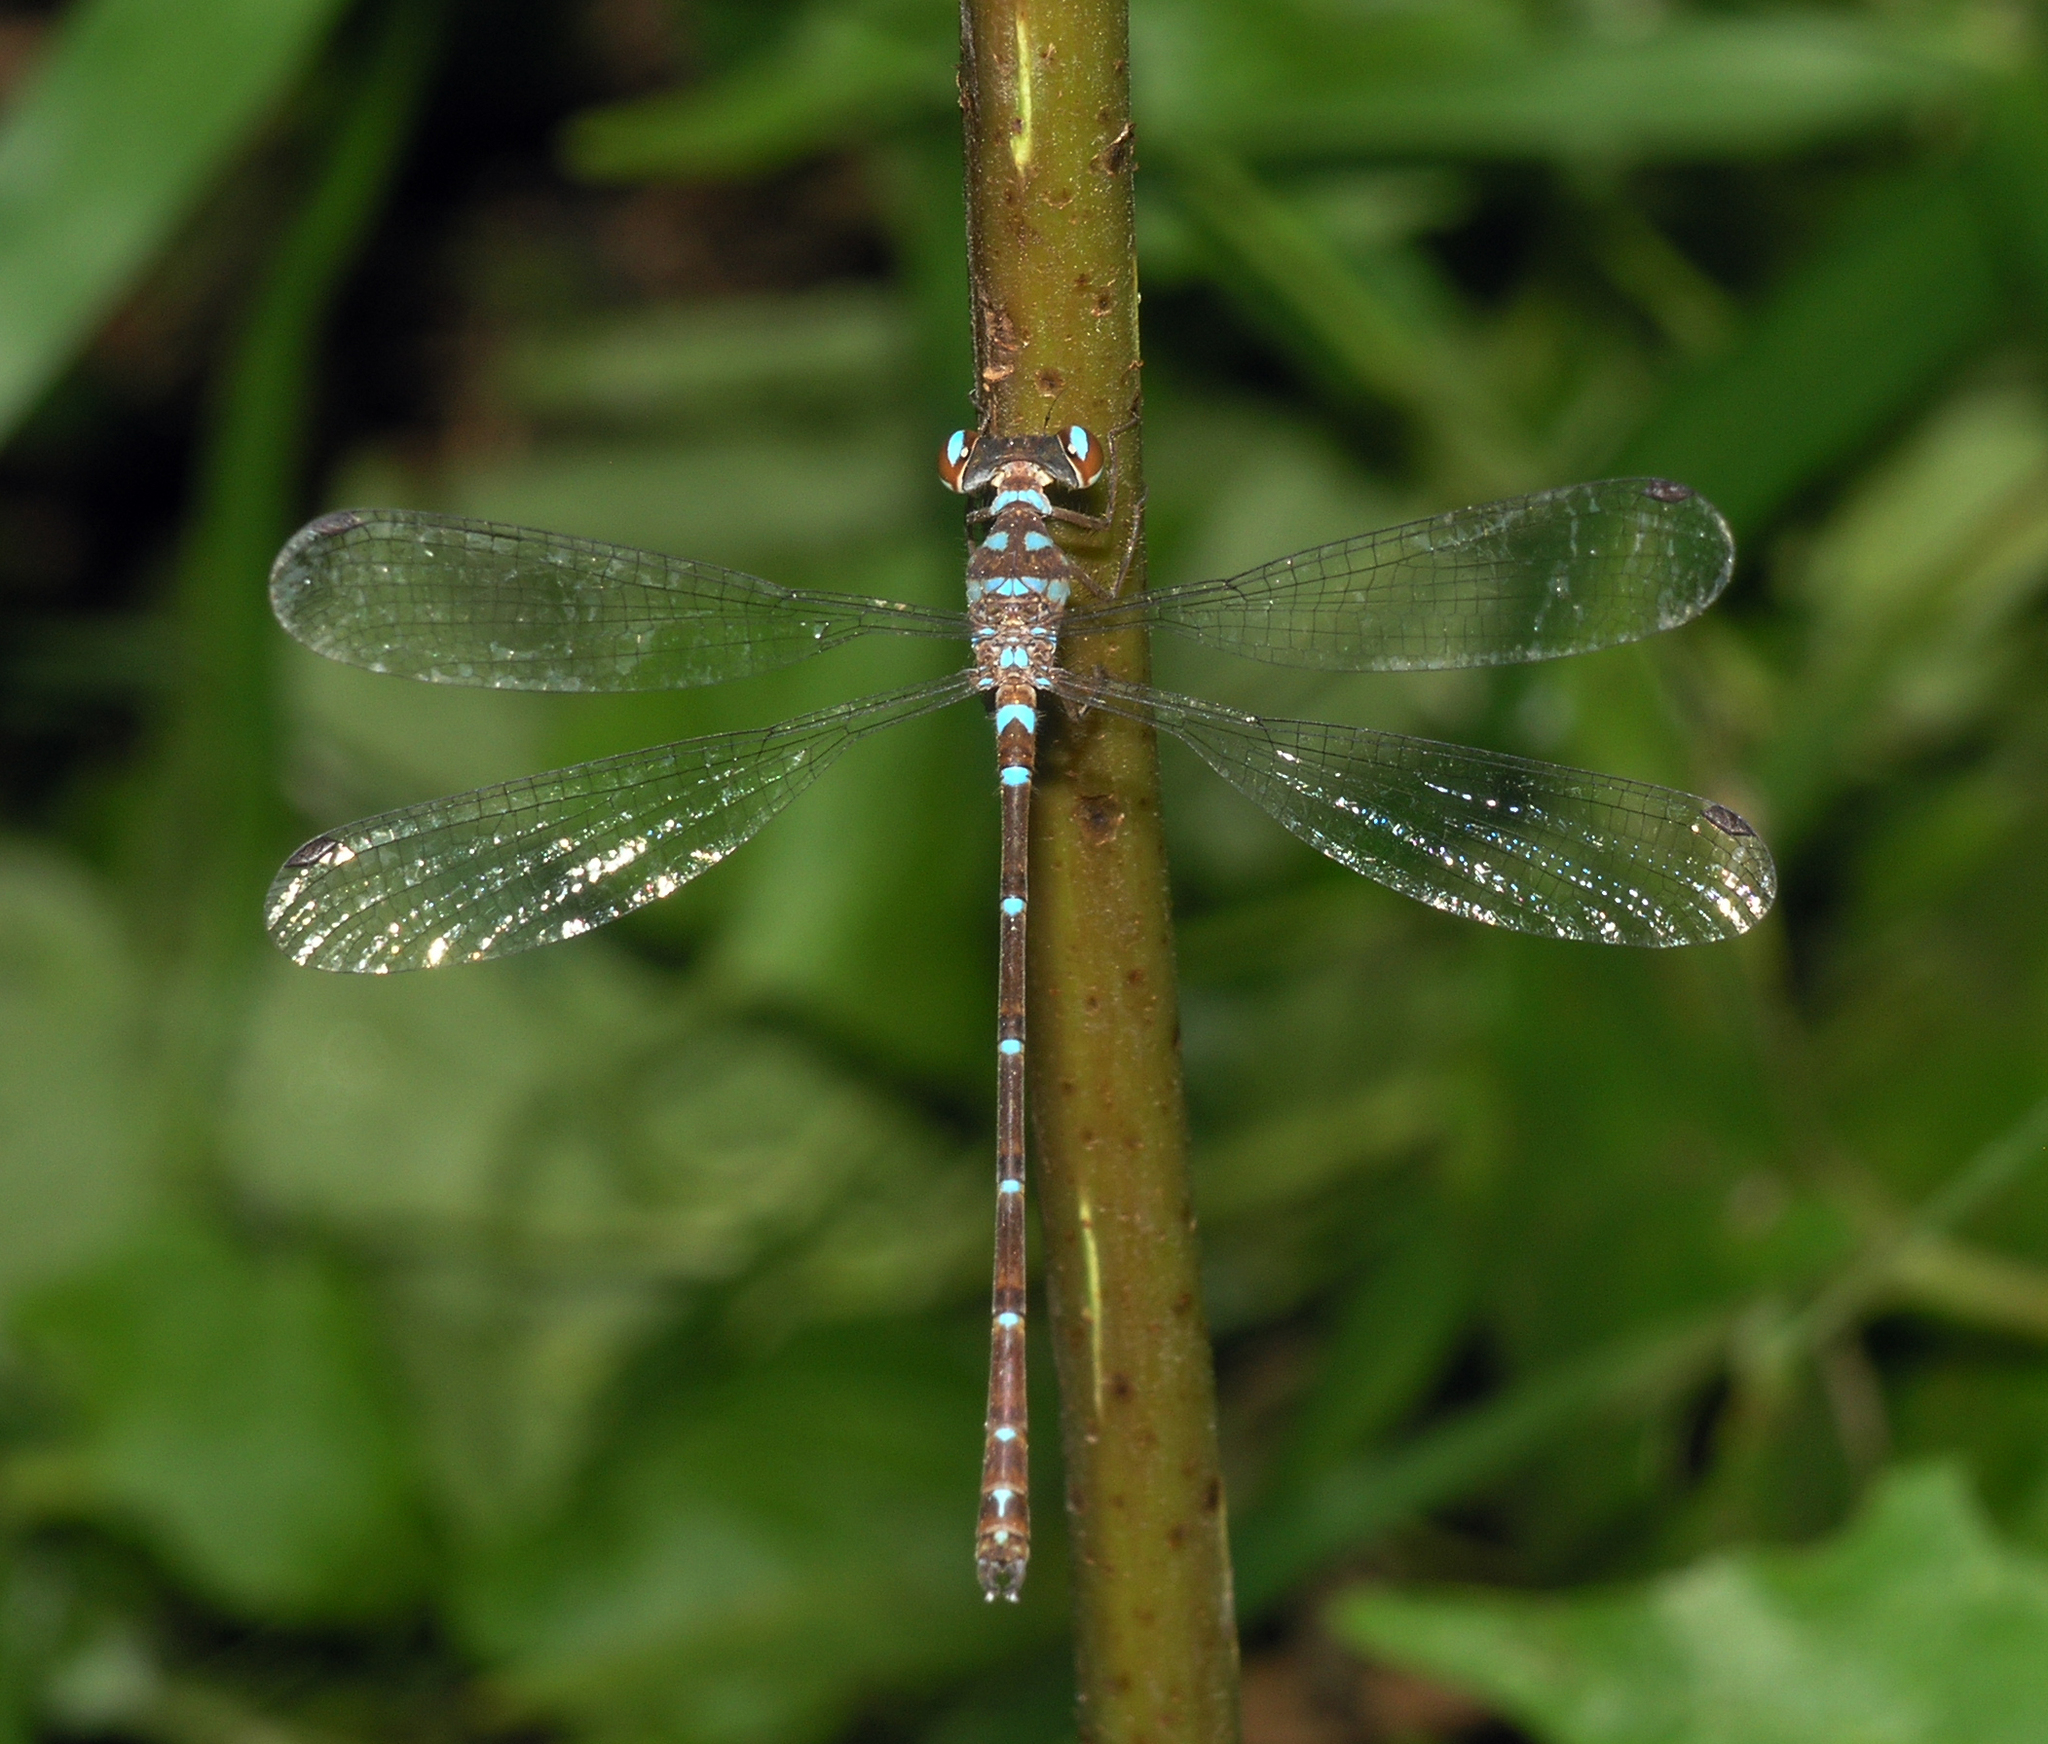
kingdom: Animalia
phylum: Arthropoda
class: Insecta
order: Odonata
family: Argiolestidae
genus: Podolestes
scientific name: Podolestes coomansi
